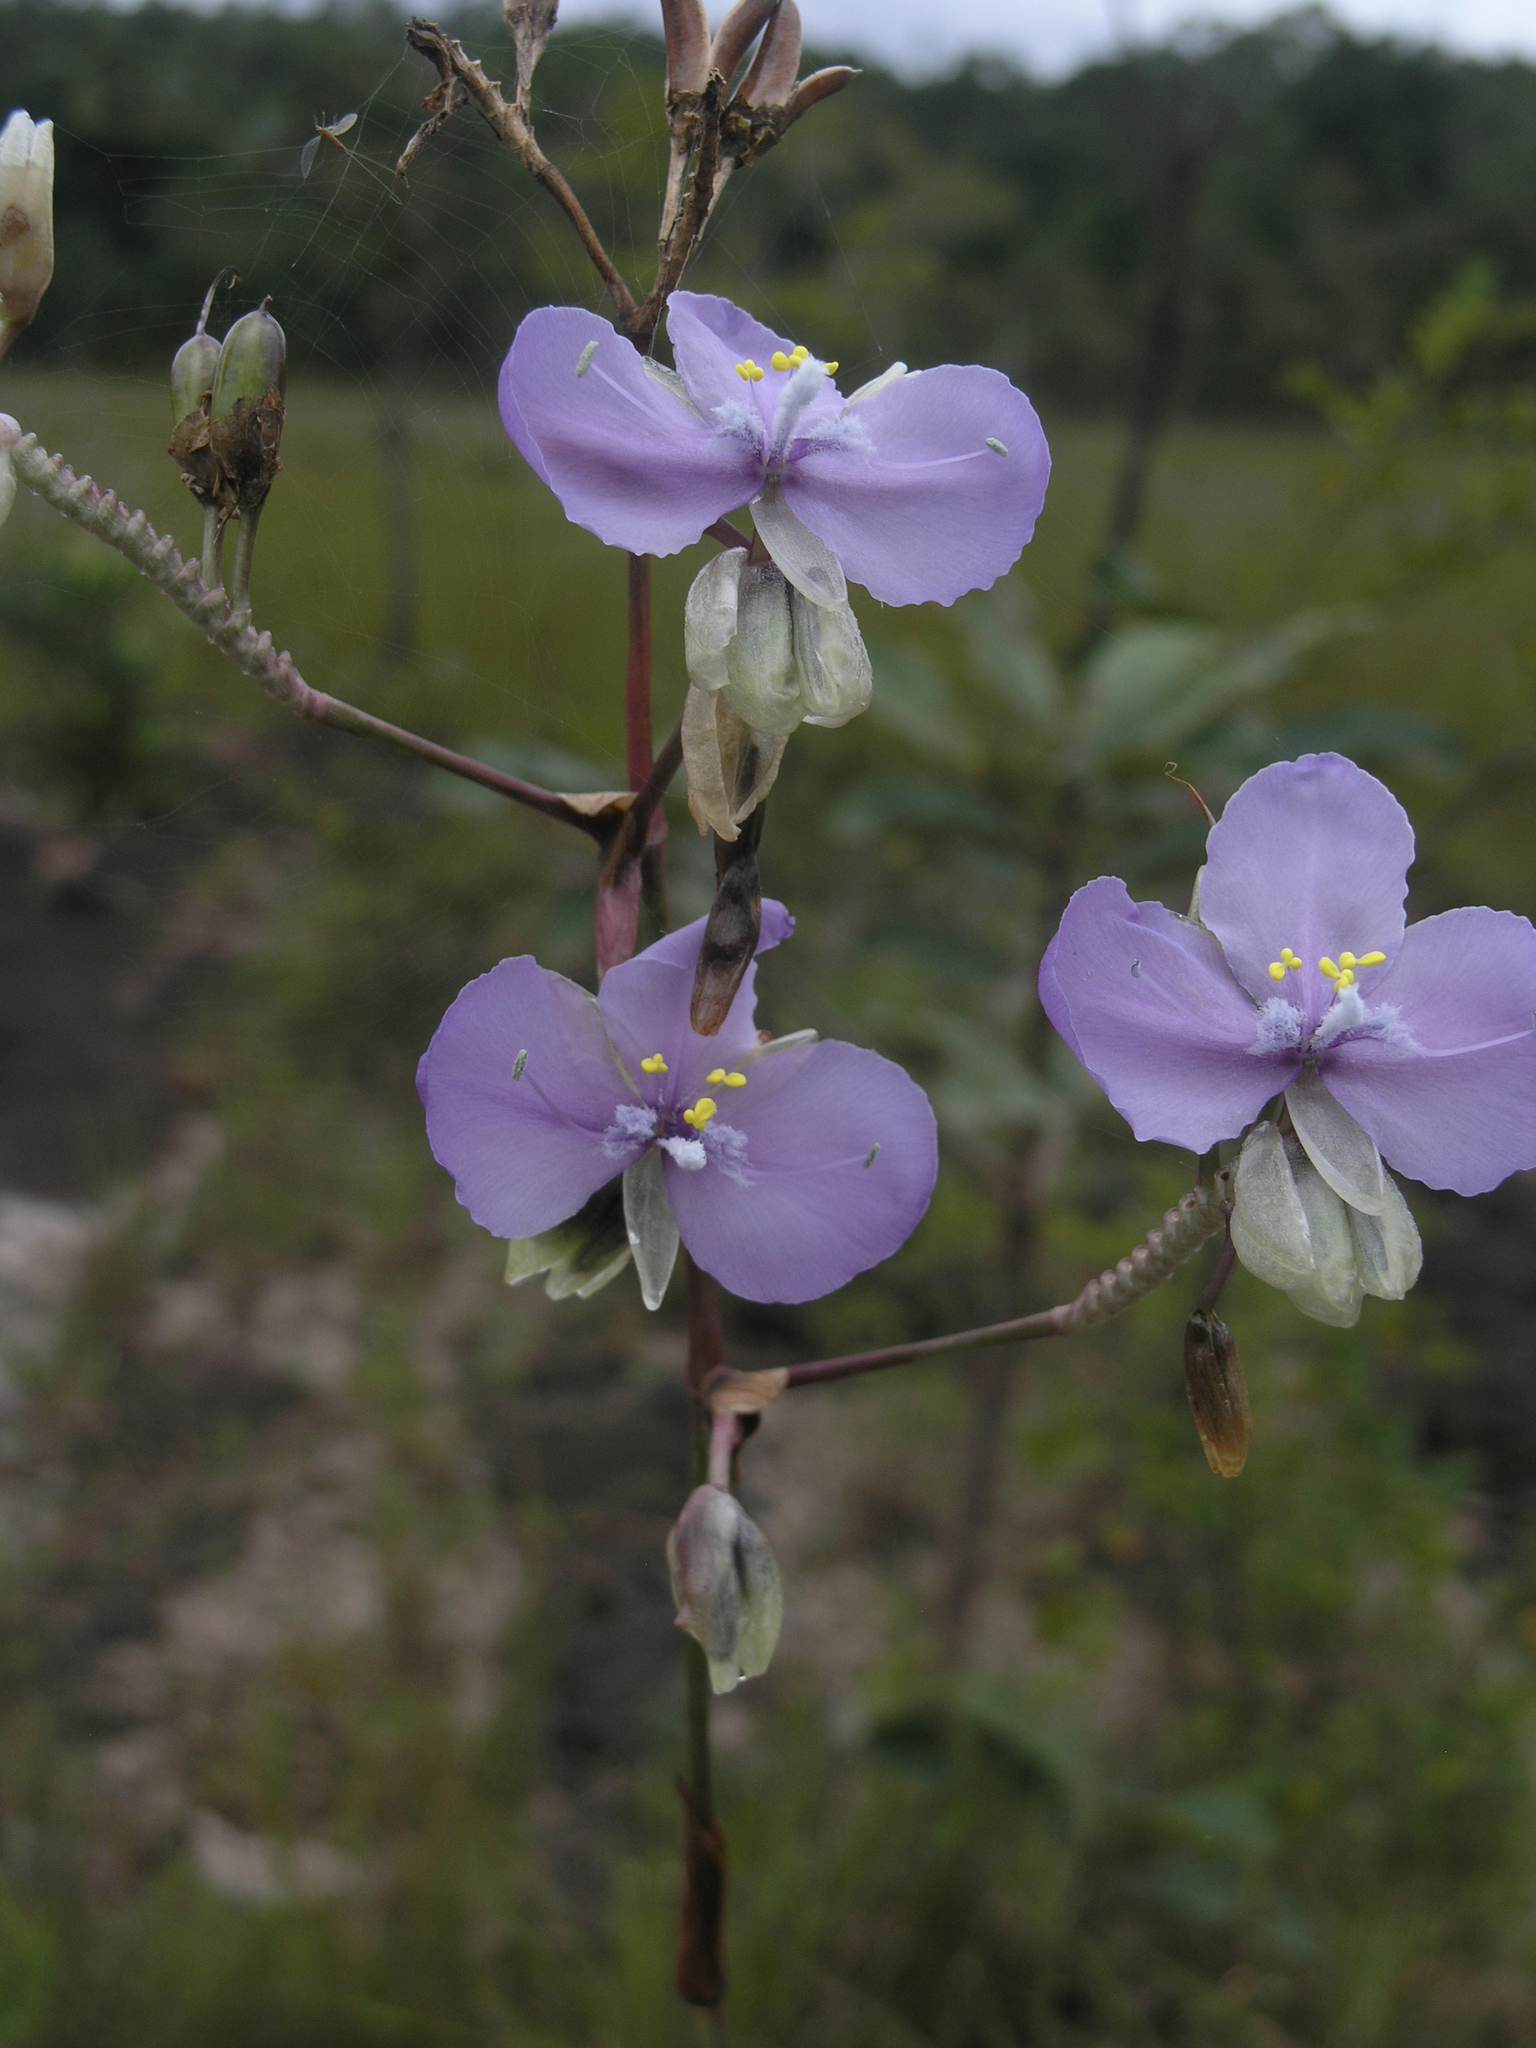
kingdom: Plantae
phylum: Tracheophyta
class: Liliopsida
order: Commelinales
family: Commelinaceae
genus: Murdannia
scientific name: Murdannia macrocarpa
